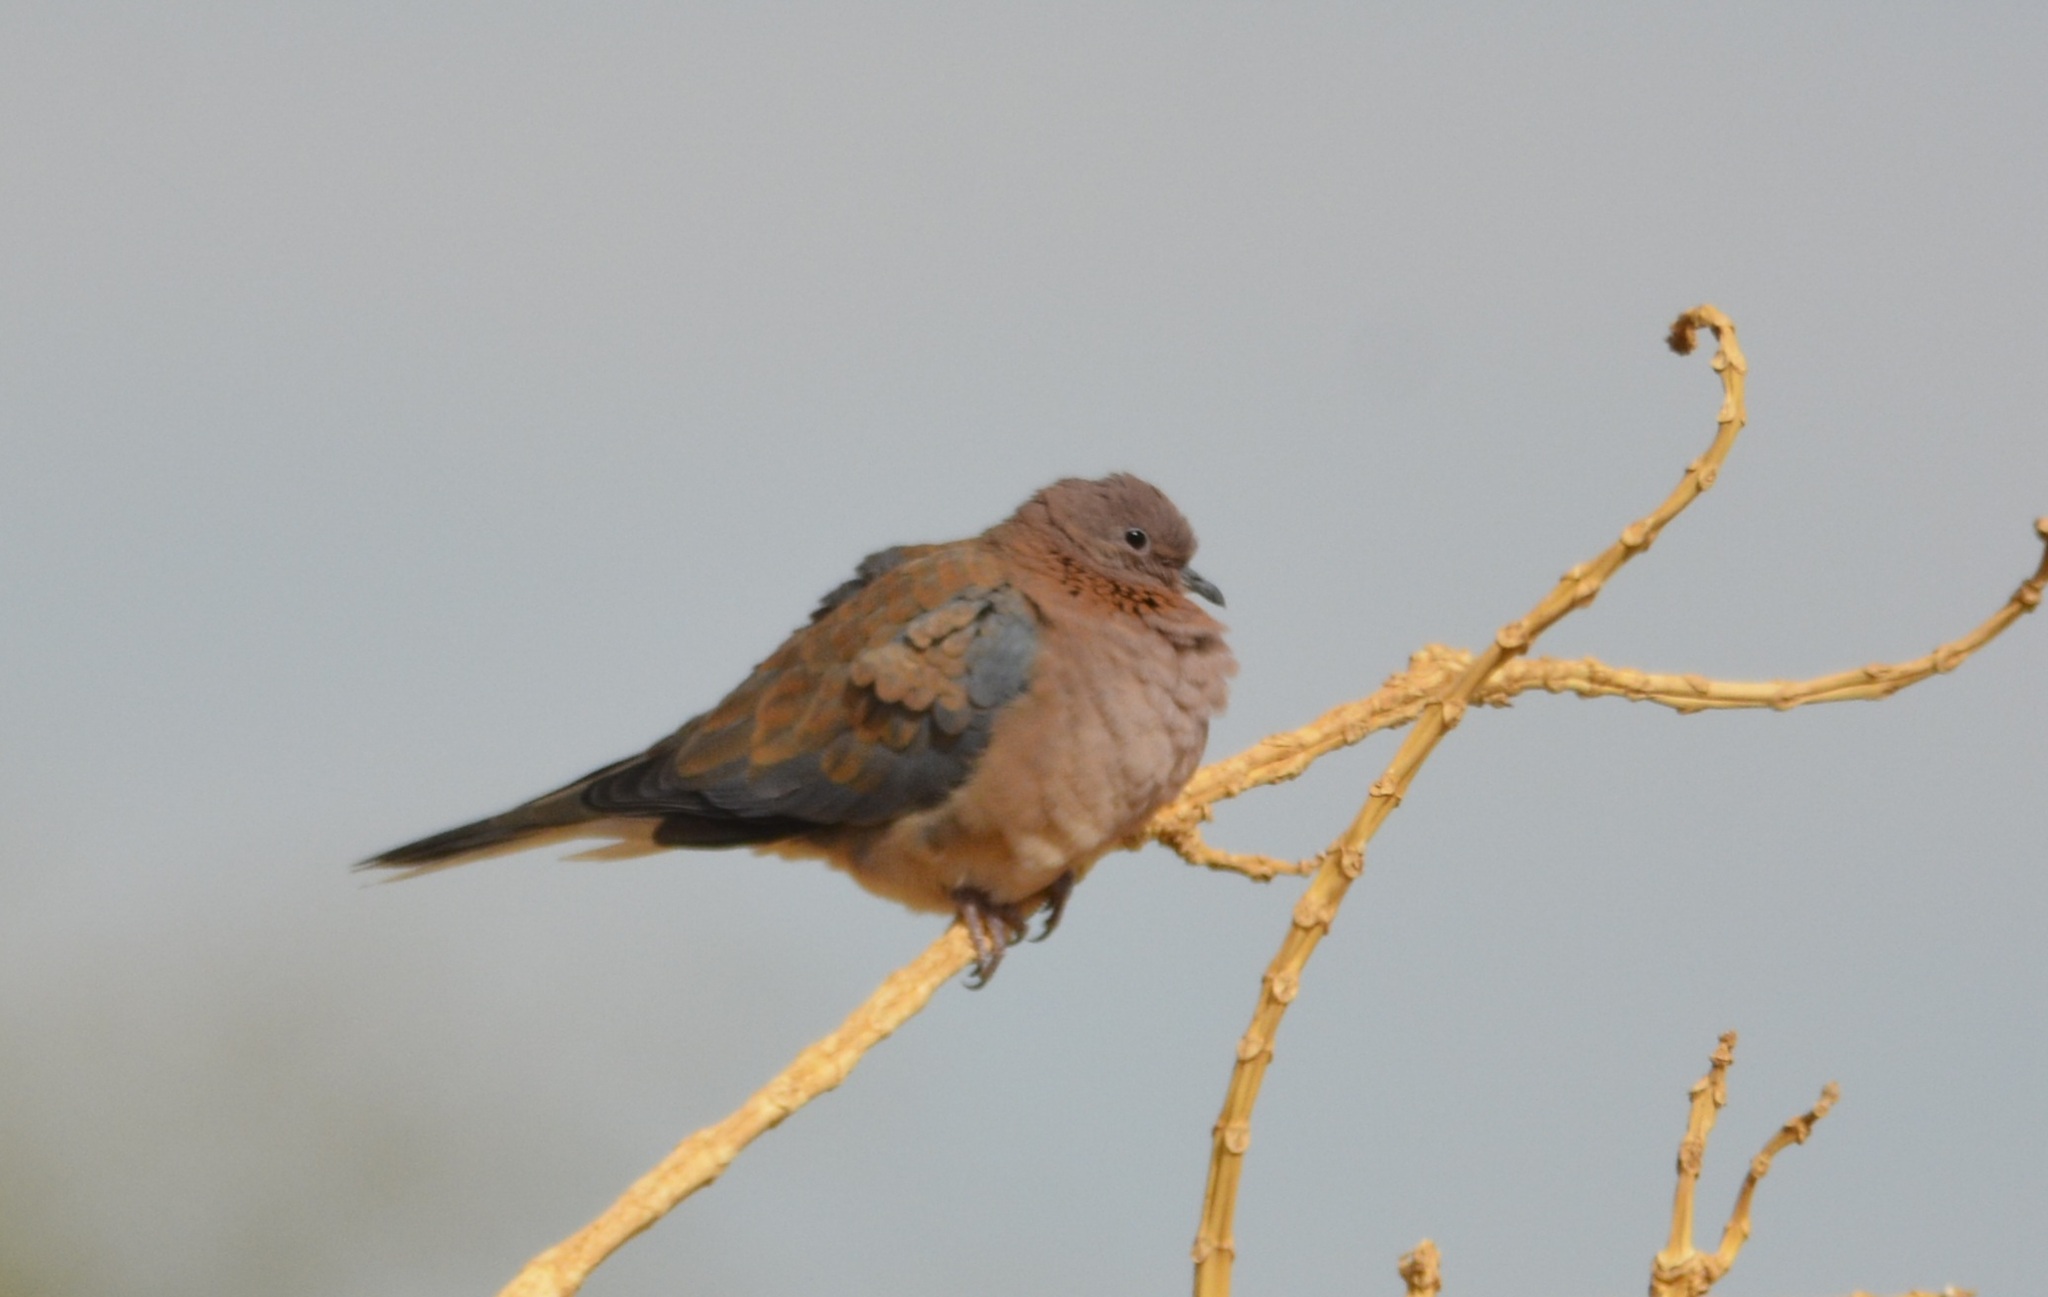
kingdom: Animalia
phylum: Chordata
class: Aves
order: Columbiformes
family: Columbidae
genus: Spilopelia
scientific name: Spilopelia senegalensis
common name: Laughing dove
